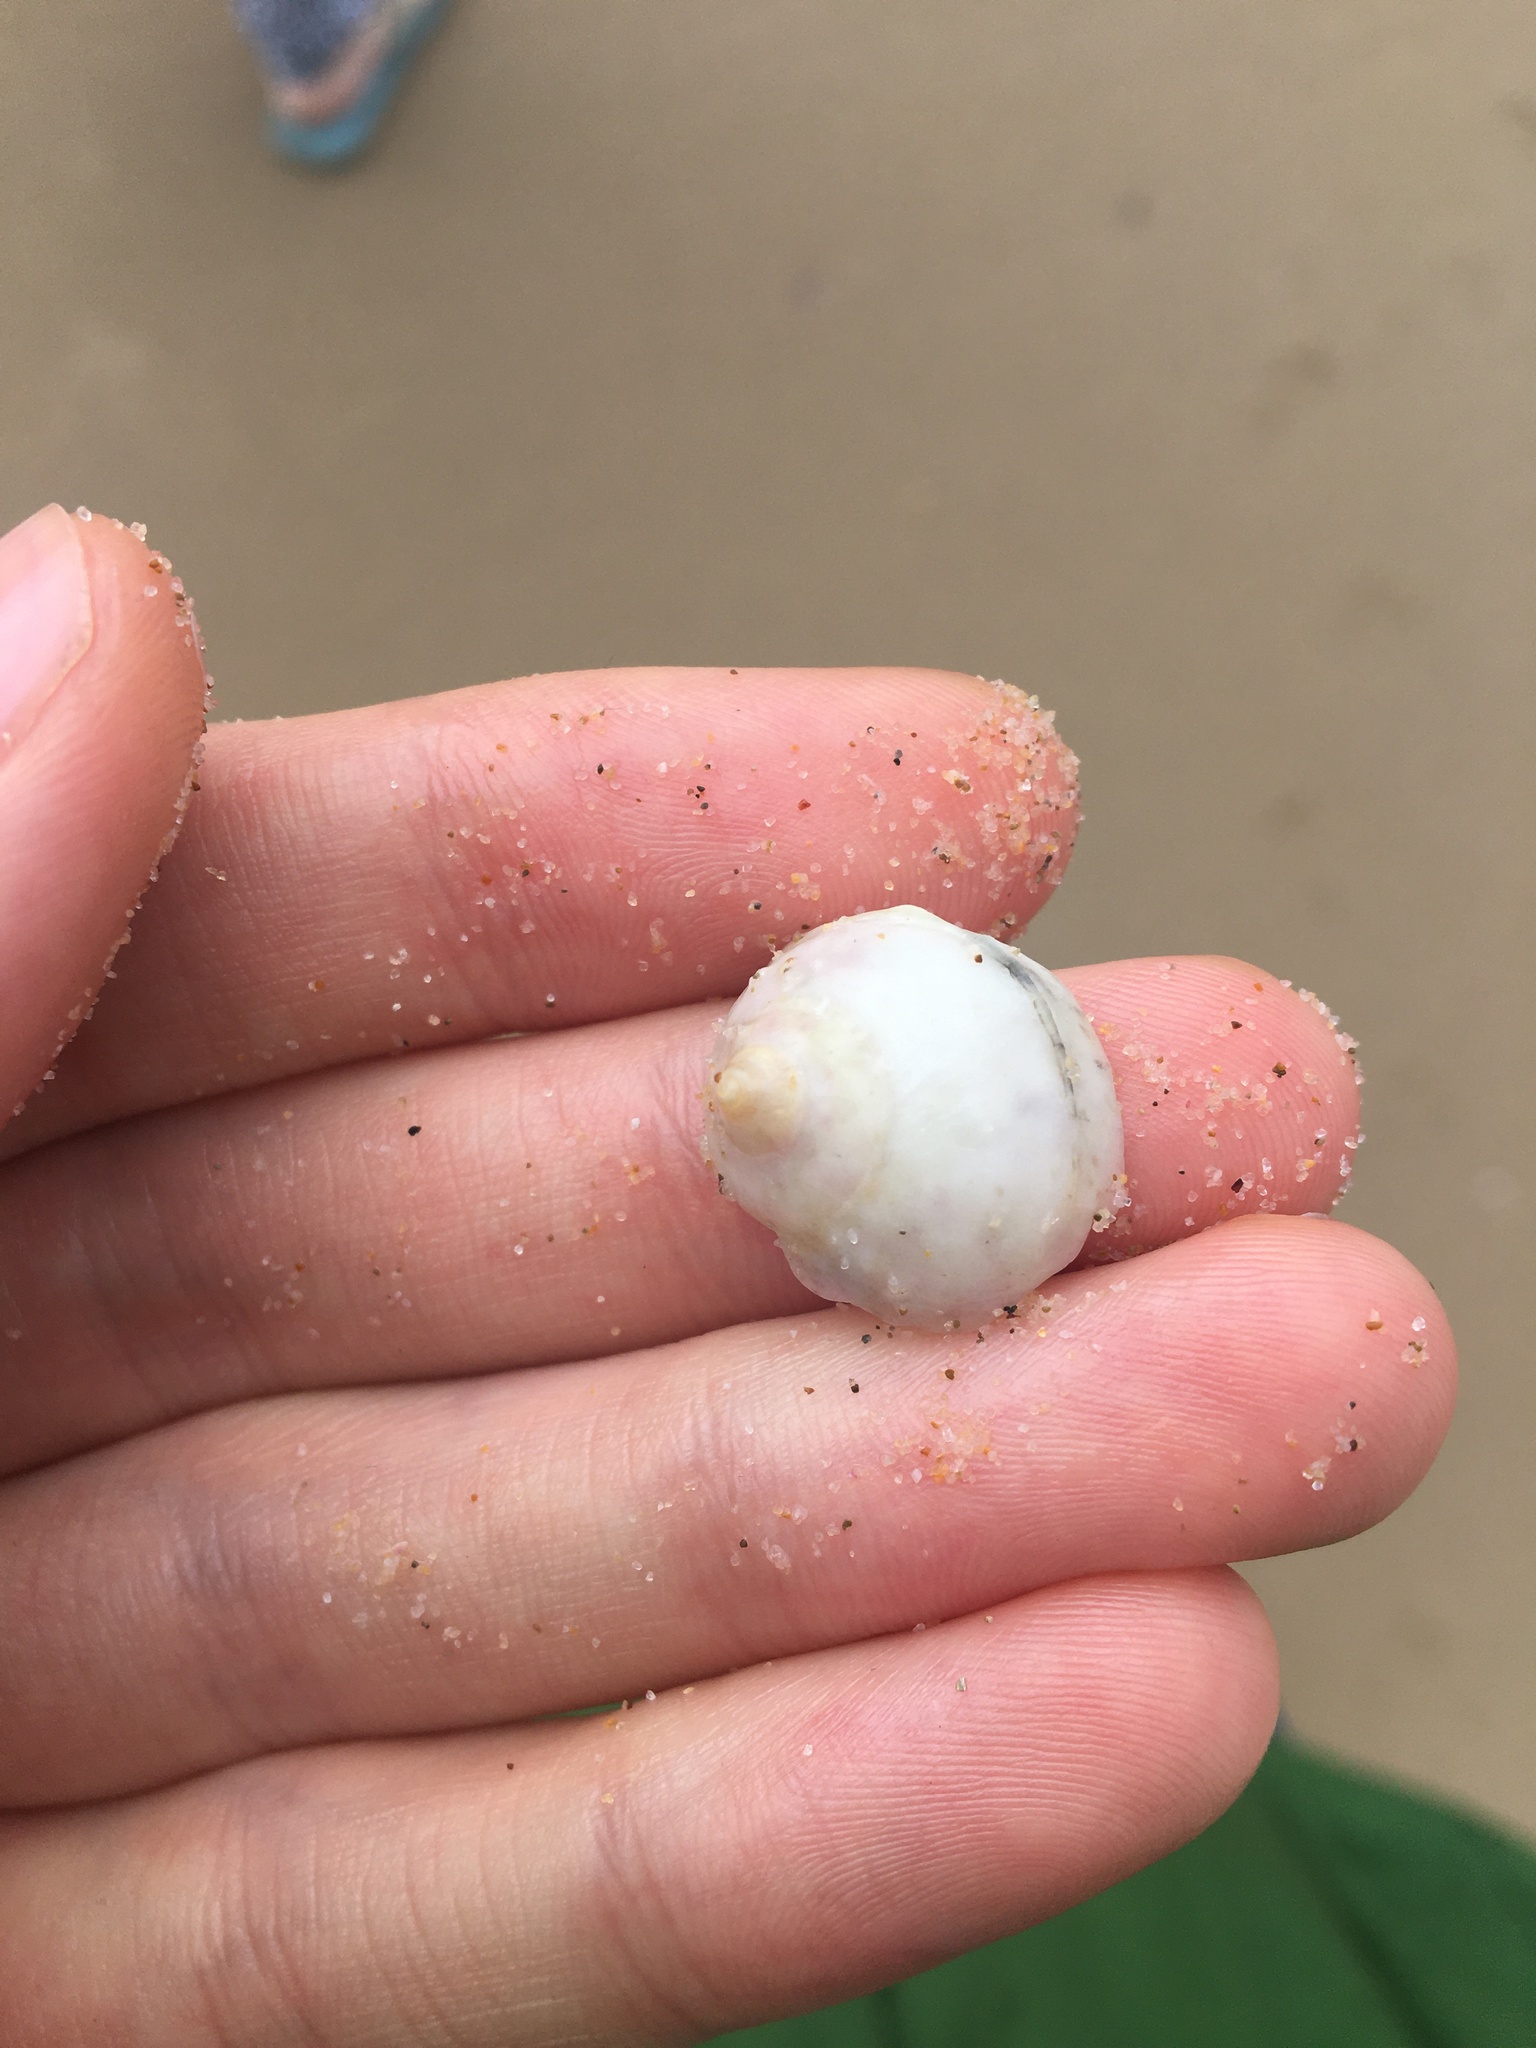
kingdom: Animalia
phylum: Mollusca
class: Gastropoda
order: Littorinimorpha
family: Cassidae
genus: Semicassis
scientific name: Semicassis labiata
